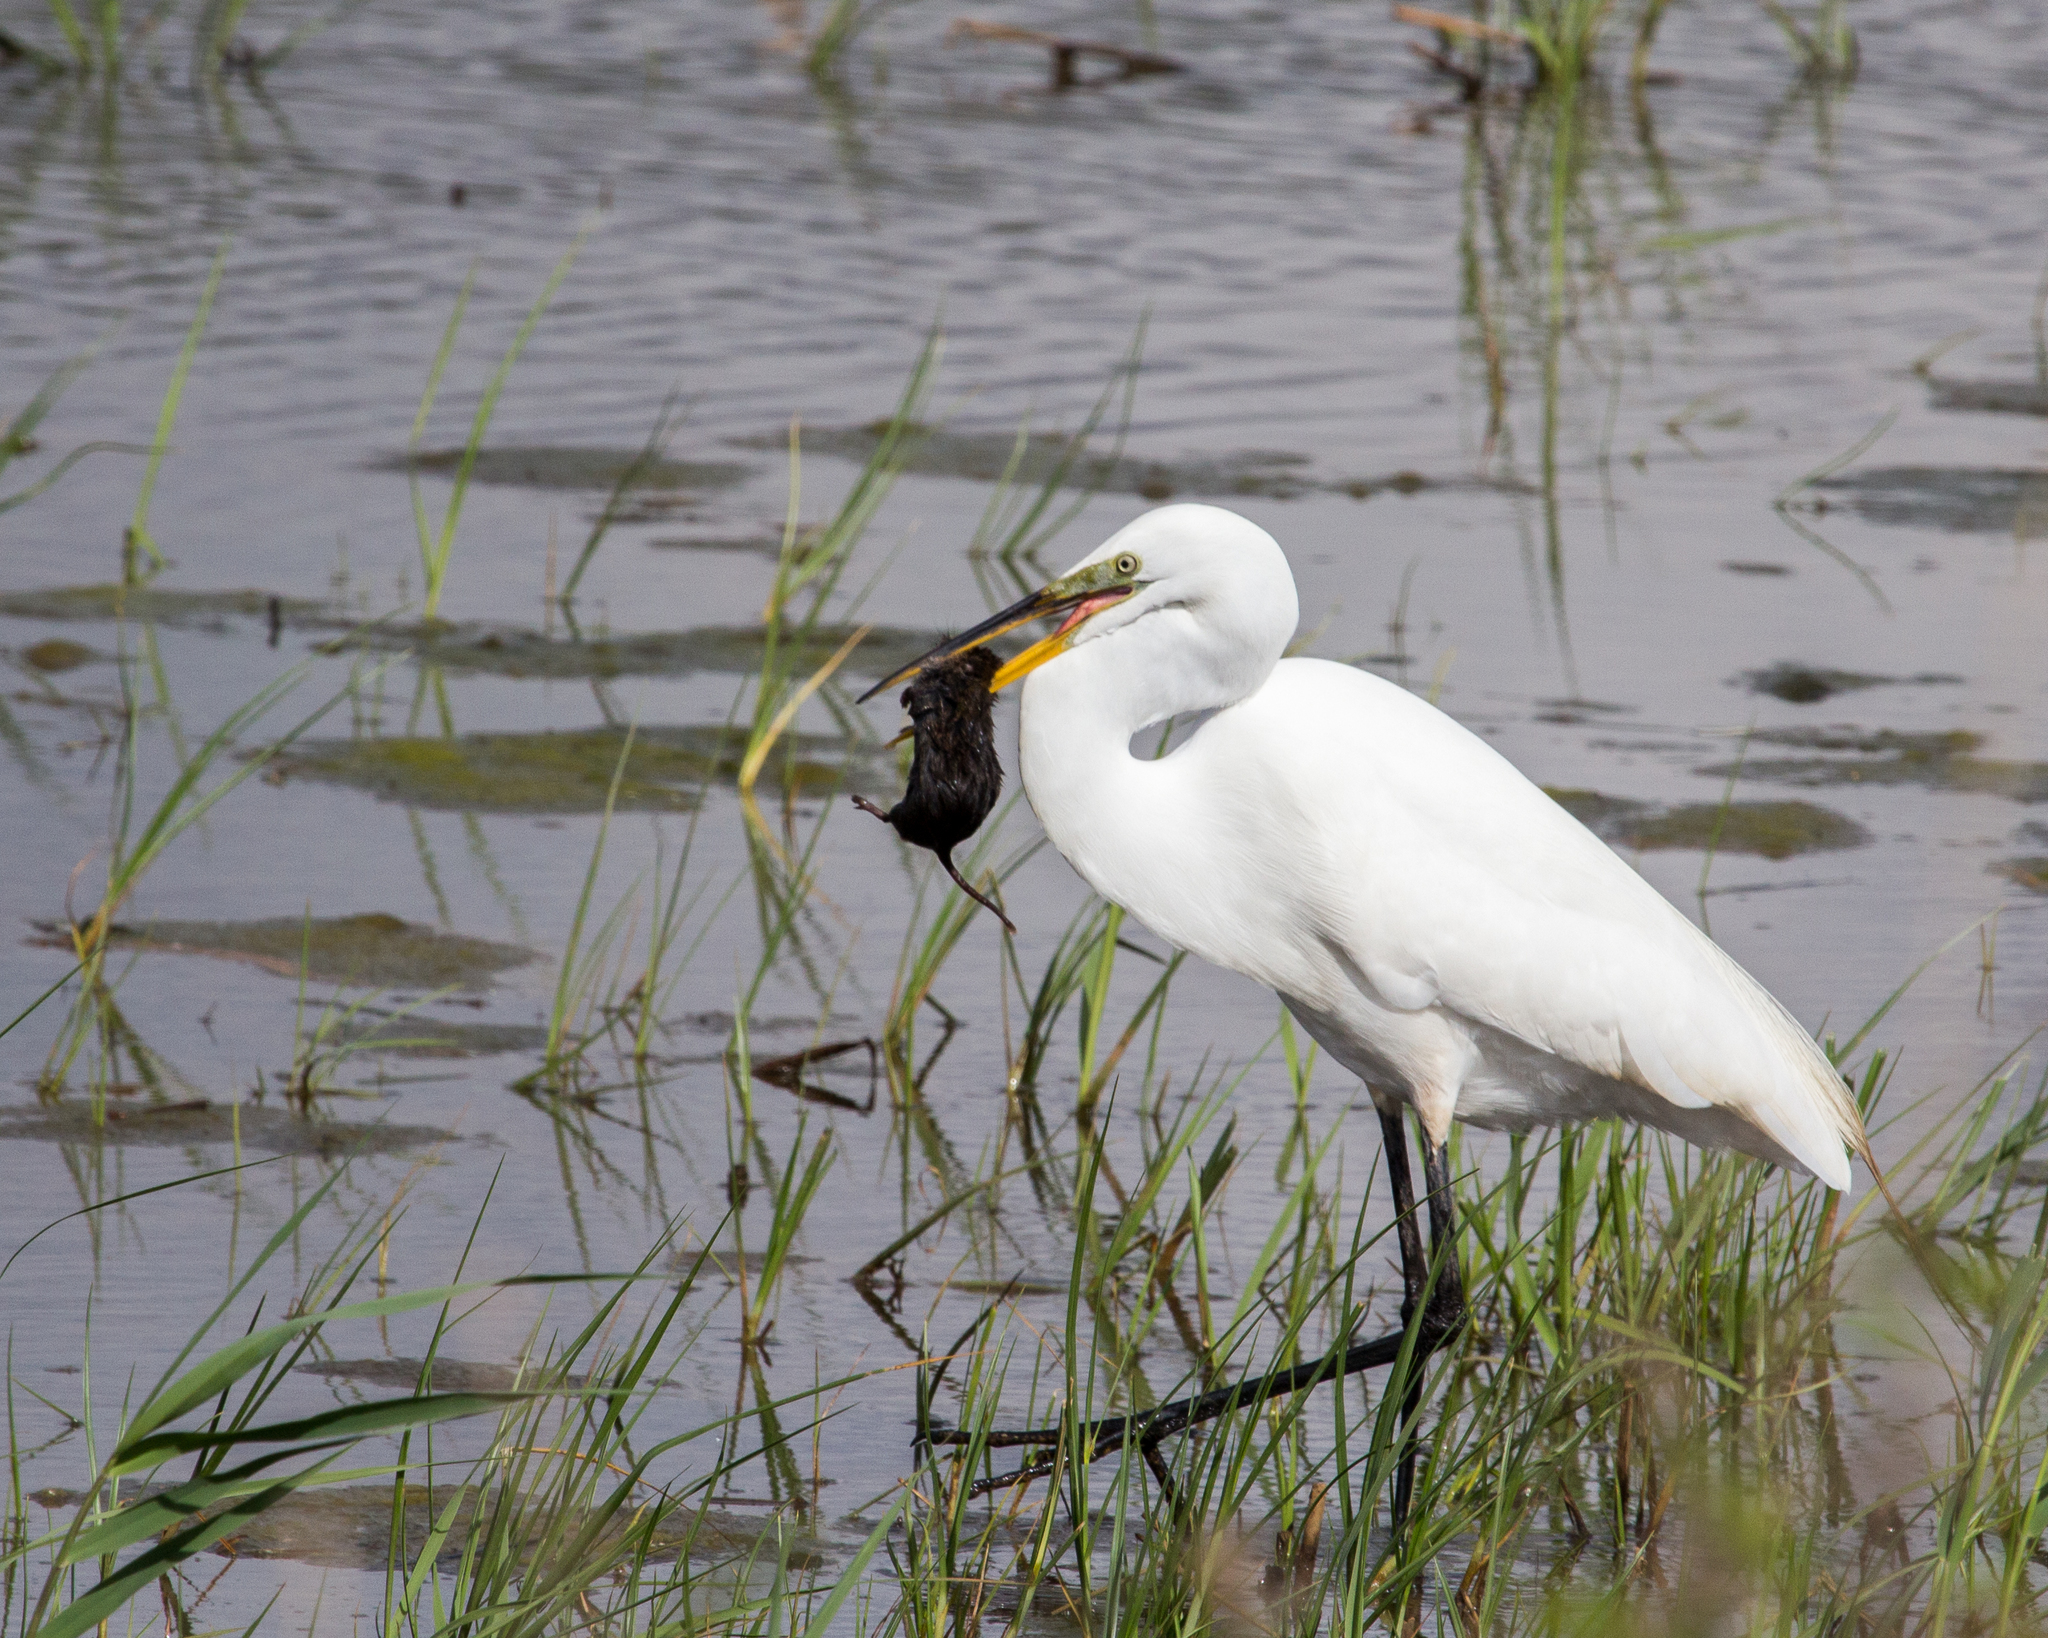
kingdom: Animalia
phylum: Chordata
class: Aves
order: Pelecaniformes
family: Ardeidae
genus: Ardea
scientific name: Ardea alba
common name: Great egret
